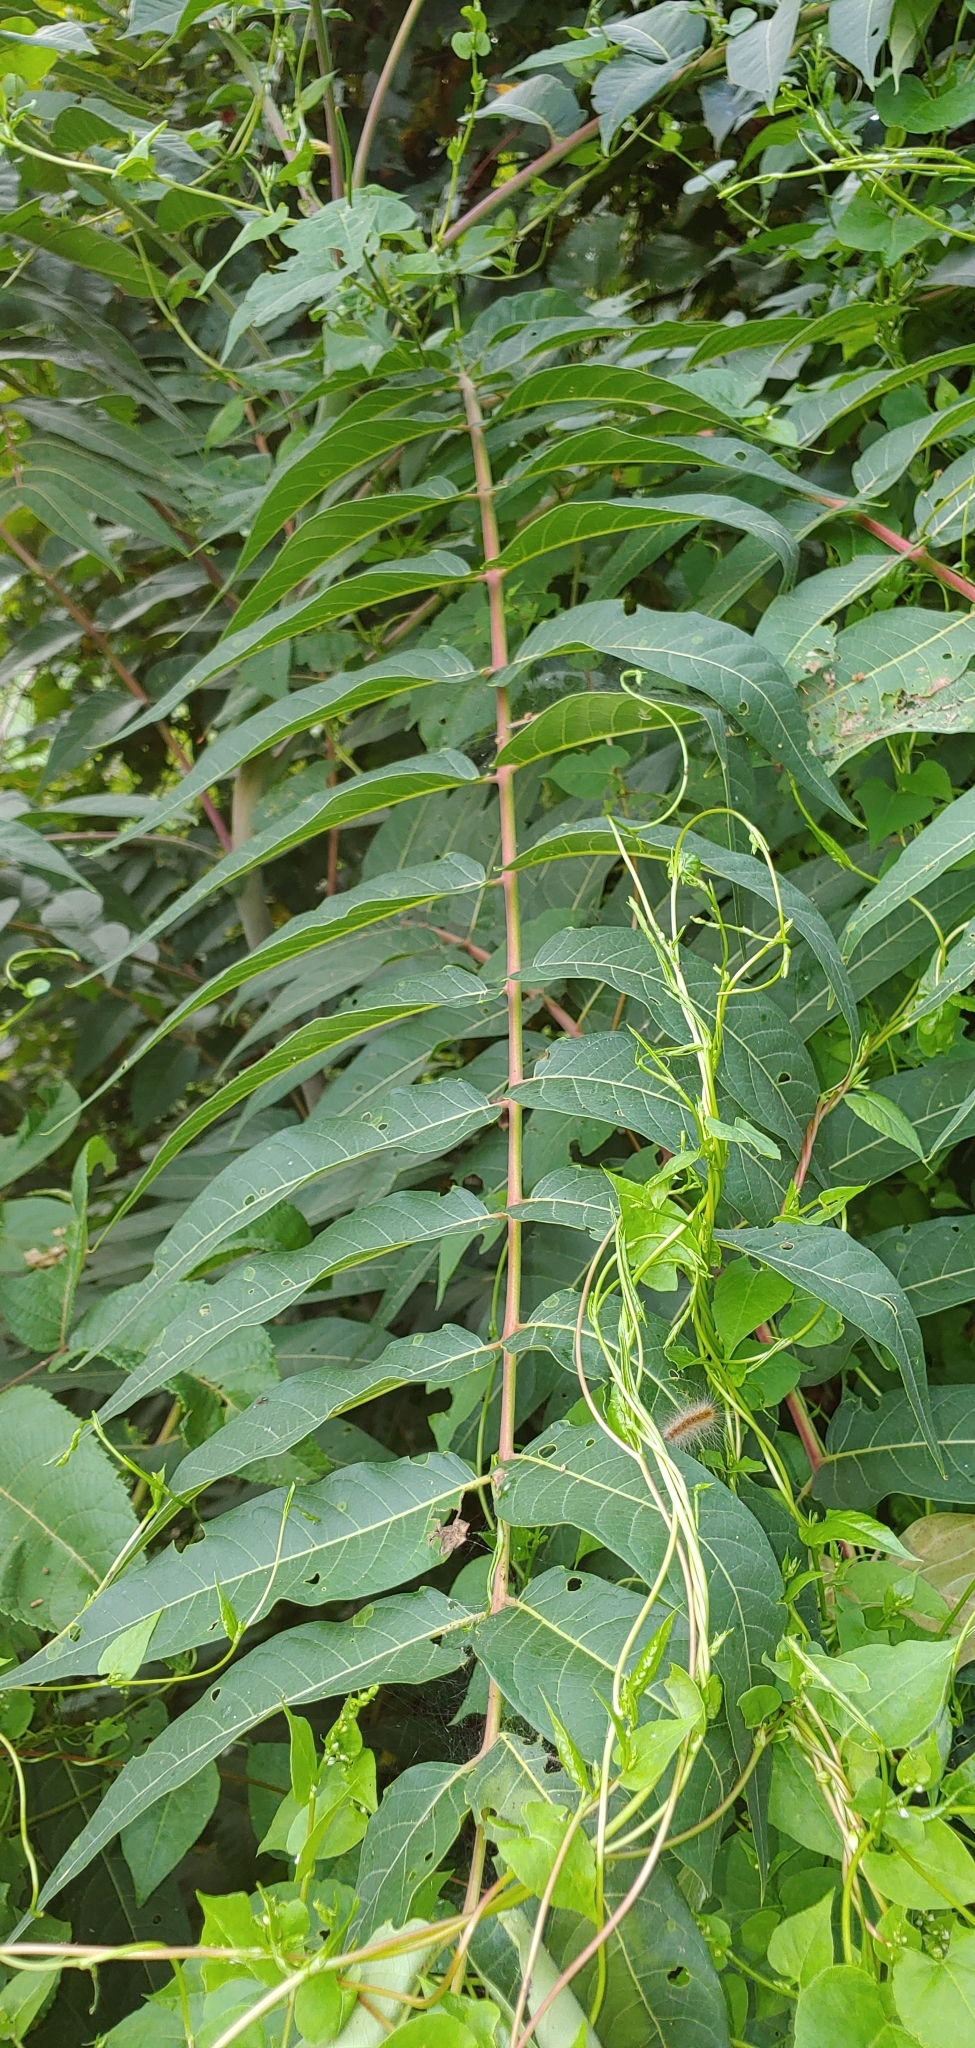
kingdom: Plantae
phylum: Tracheophyta
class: Magnoliopsida
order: Sapindales
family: Simaroubaceae
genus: Ailanthus
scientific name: Ailanthus altissima
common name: Tree-of-heaven
